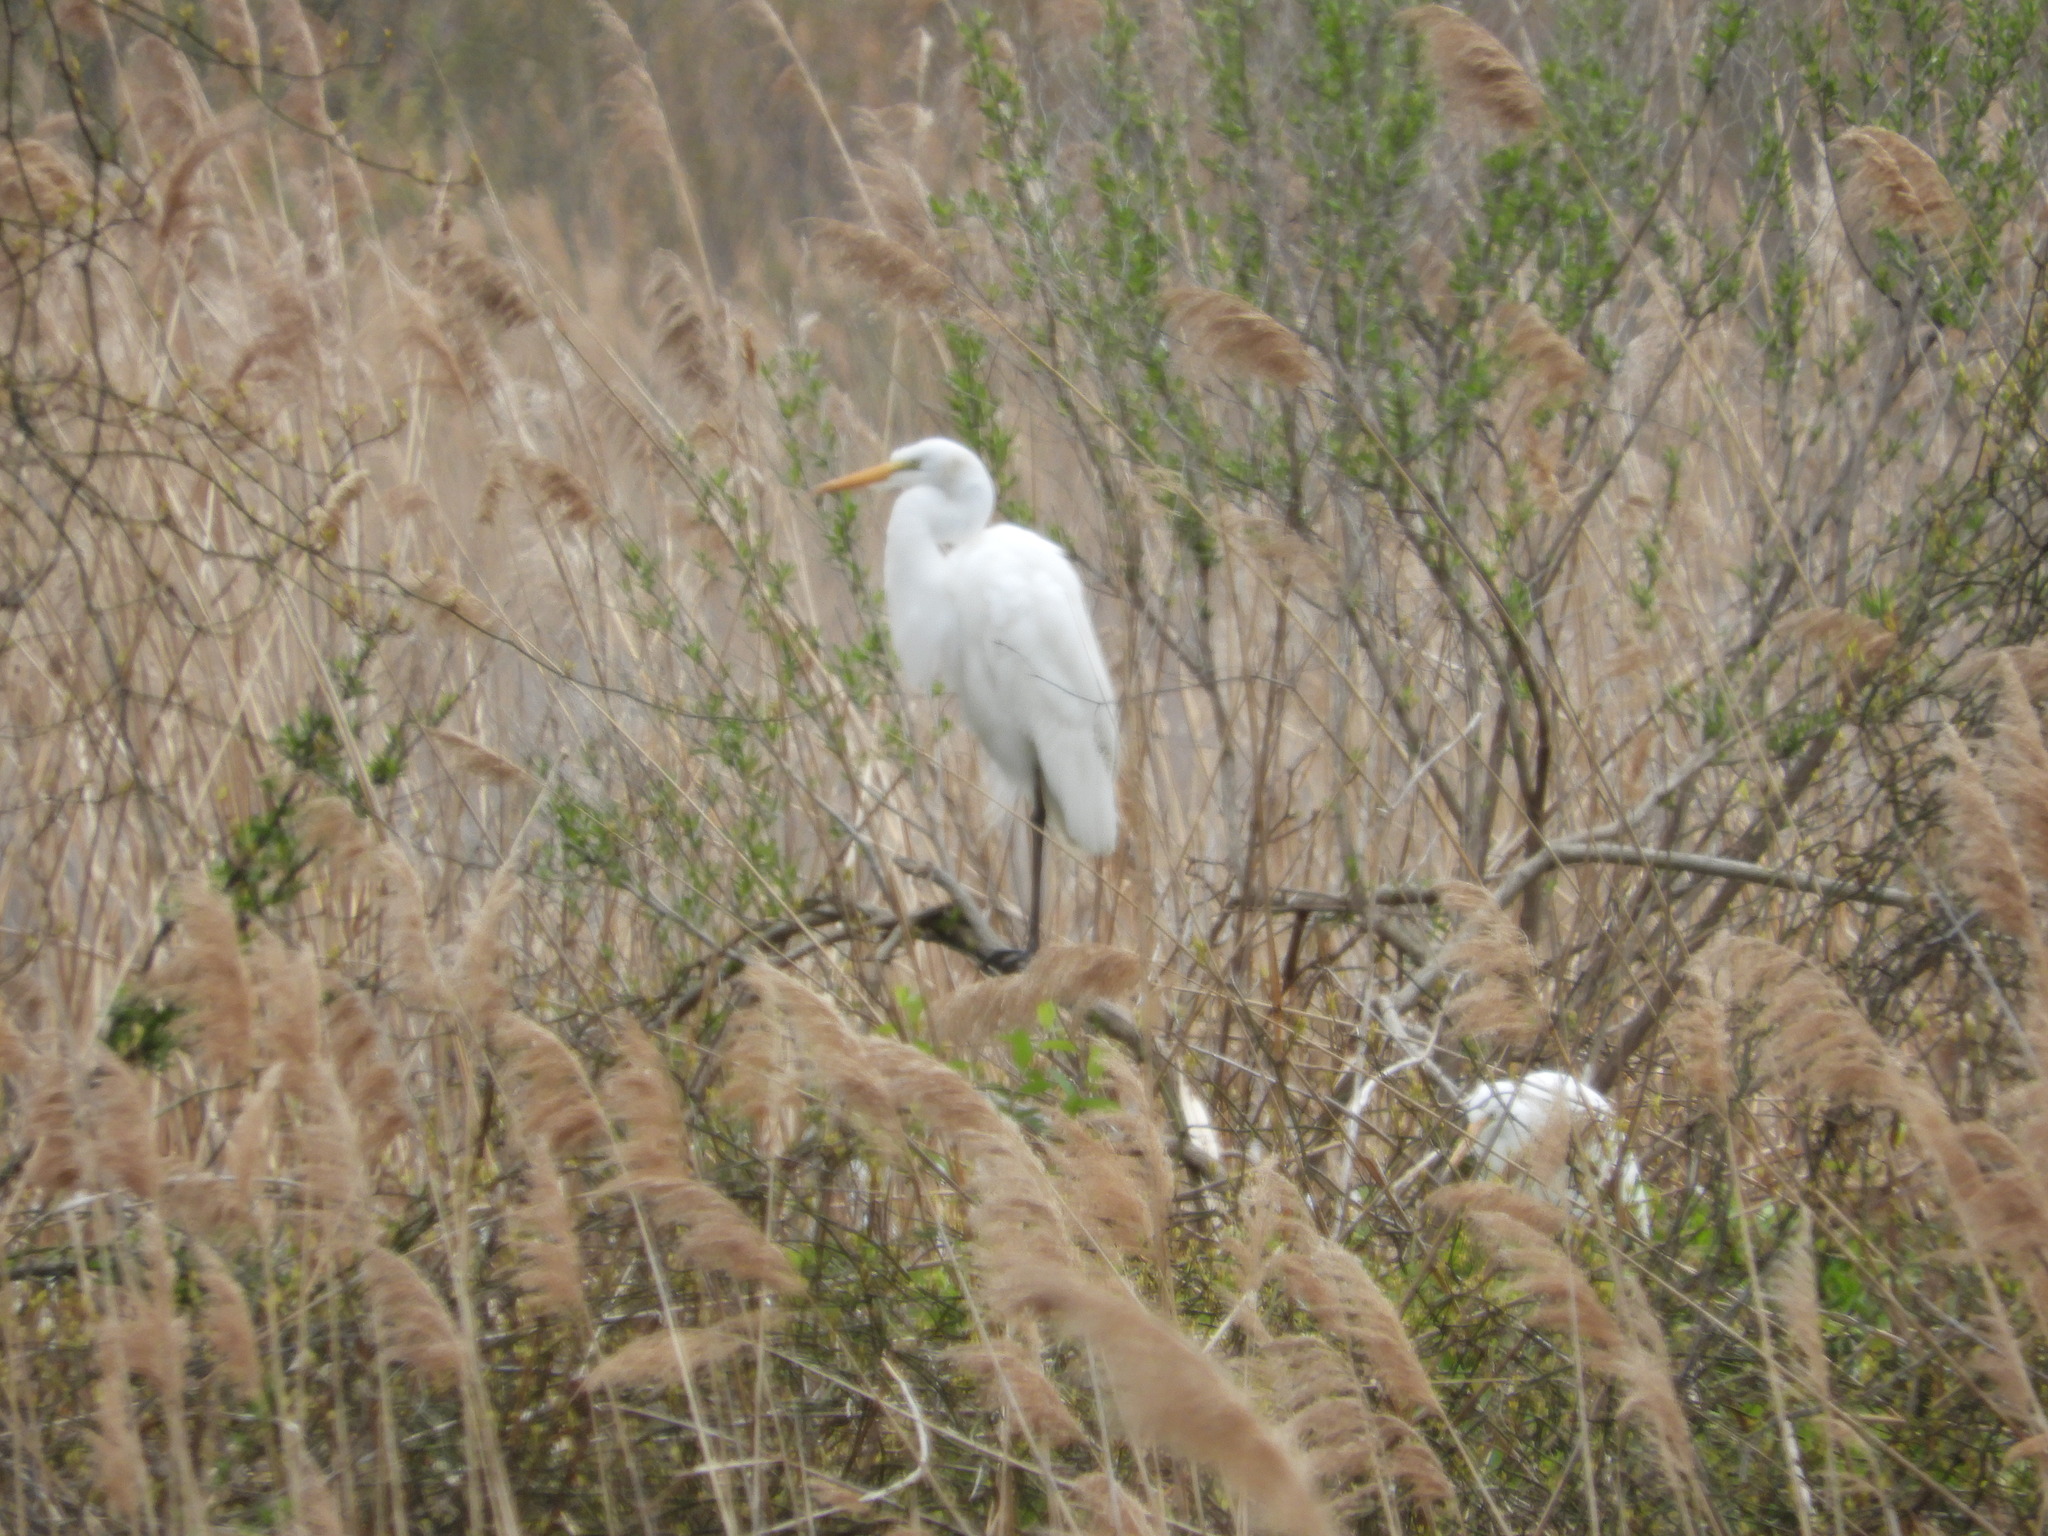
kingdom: Animalia
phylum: Chordata
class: Aves
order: Pelecaniformes
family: Ardeidae
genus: Ardea
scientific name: Ardea alba
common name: Great egret
